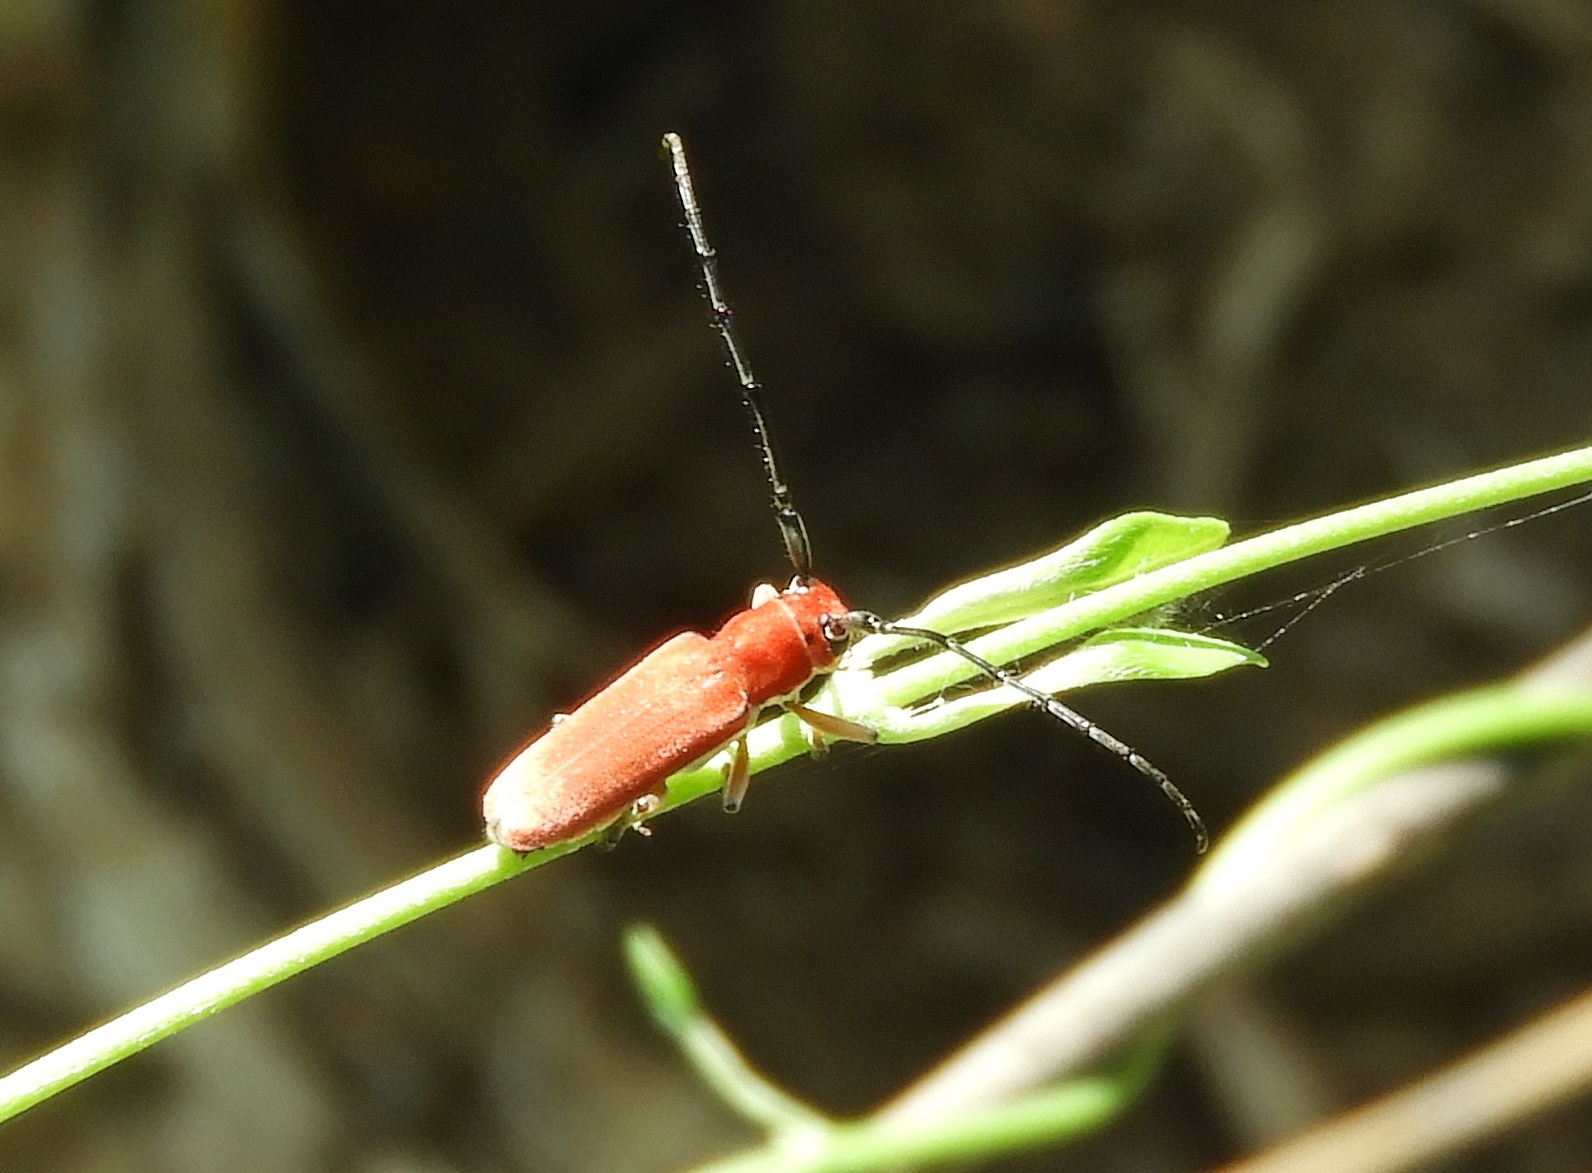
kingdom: Animalia
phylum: Arthropoda
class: Insecta
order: Coleoptera
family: Cerambycidae
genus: Essostrutha
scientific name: Essostrutha laeta
